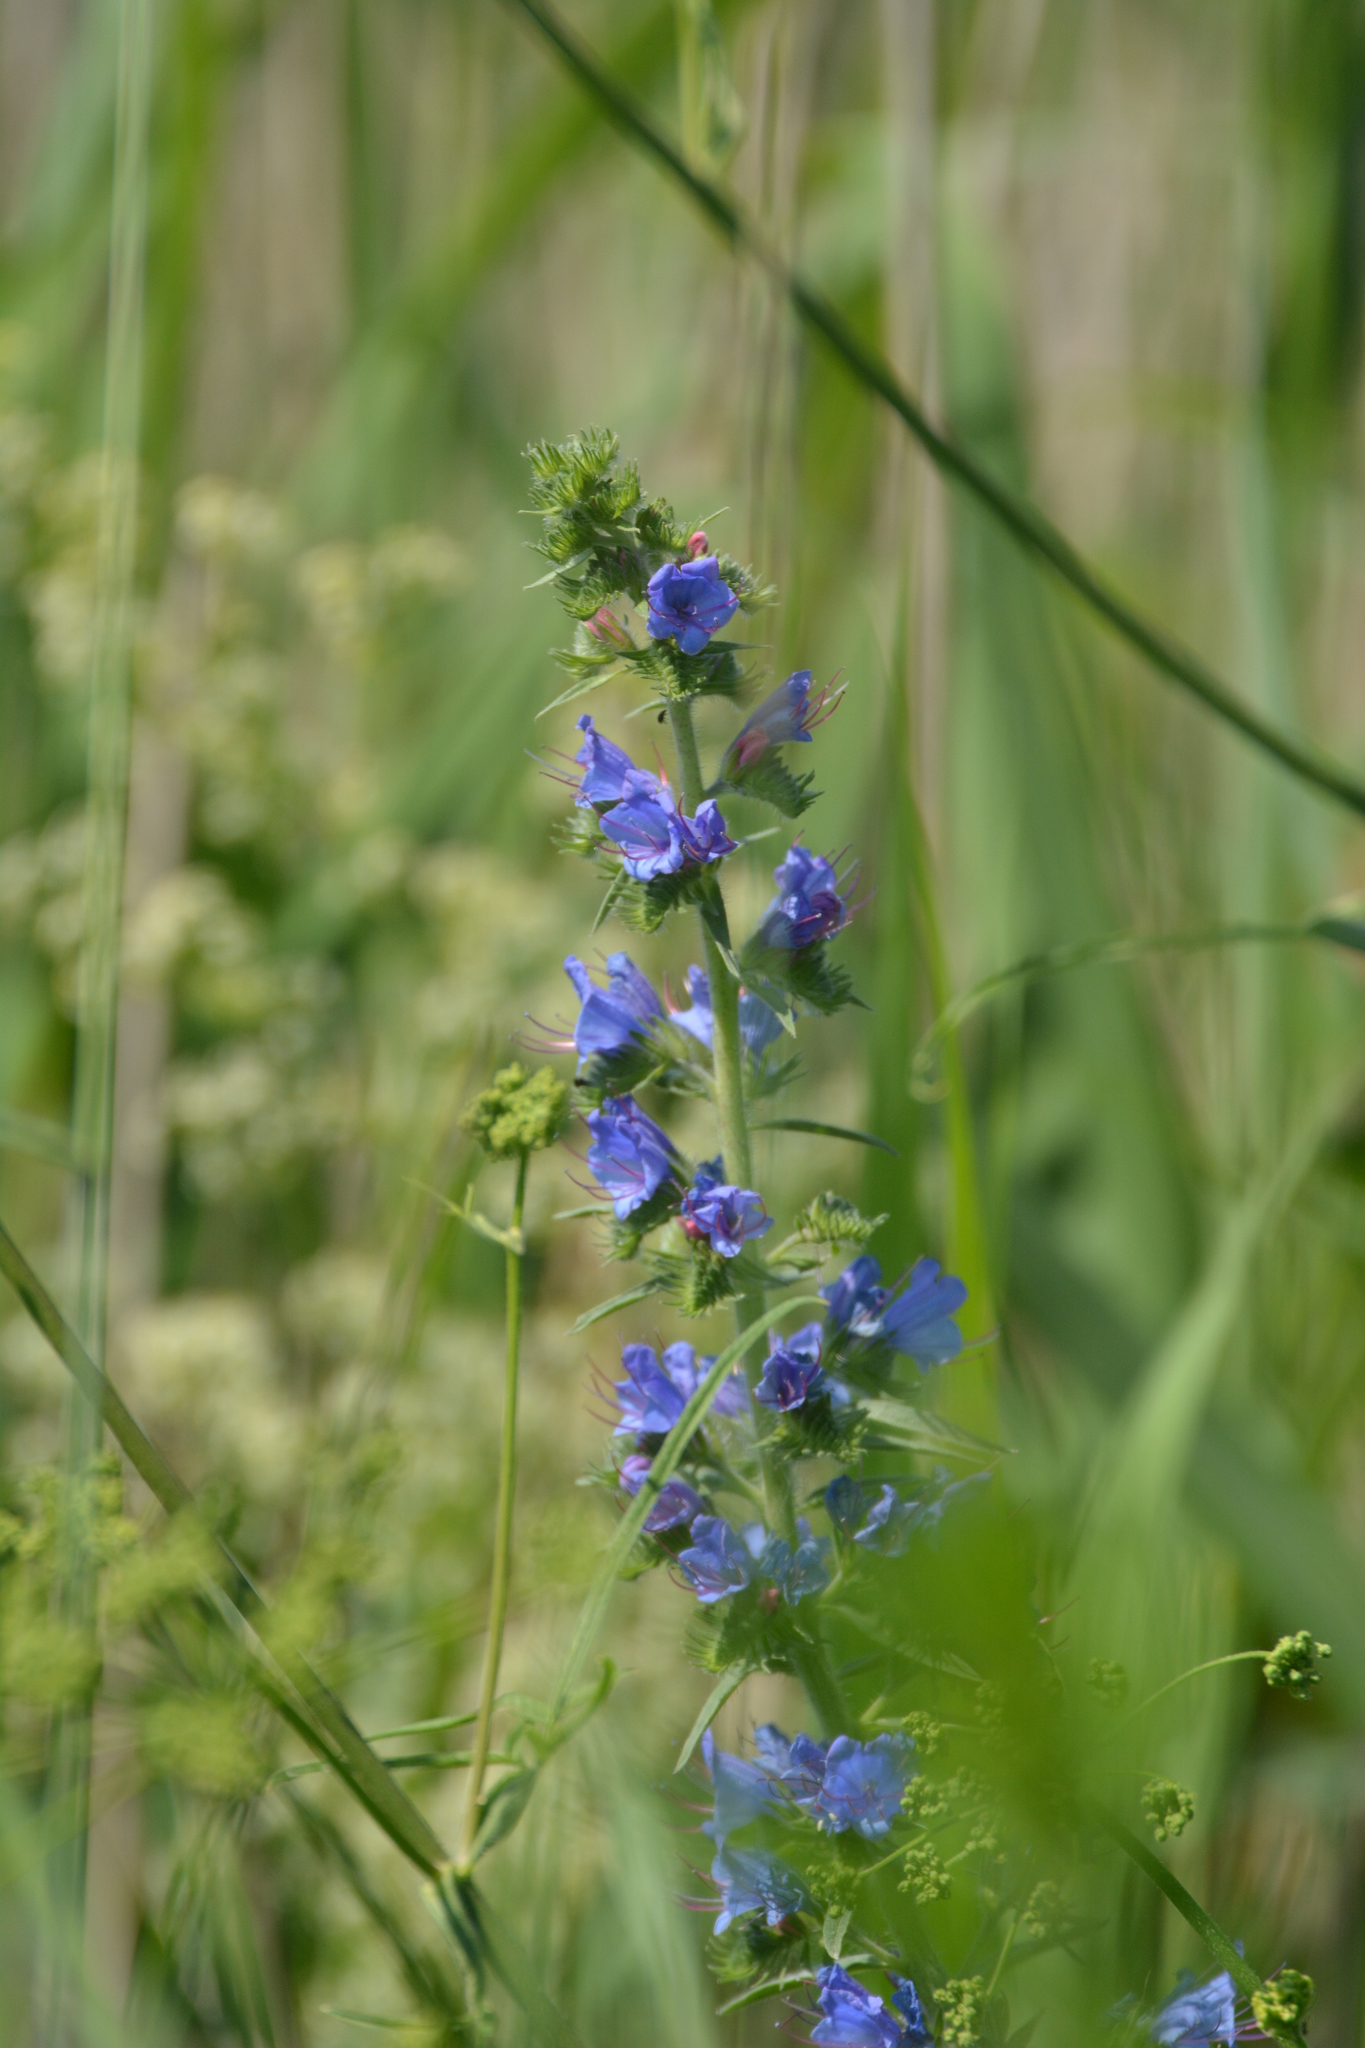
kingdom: Plantae
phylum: Tracheophyta
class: Magnoliopsida
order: Boraginales
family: Boraginaceae
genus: Echium
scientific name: Echium vulgare
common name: Common viper's bugloss
